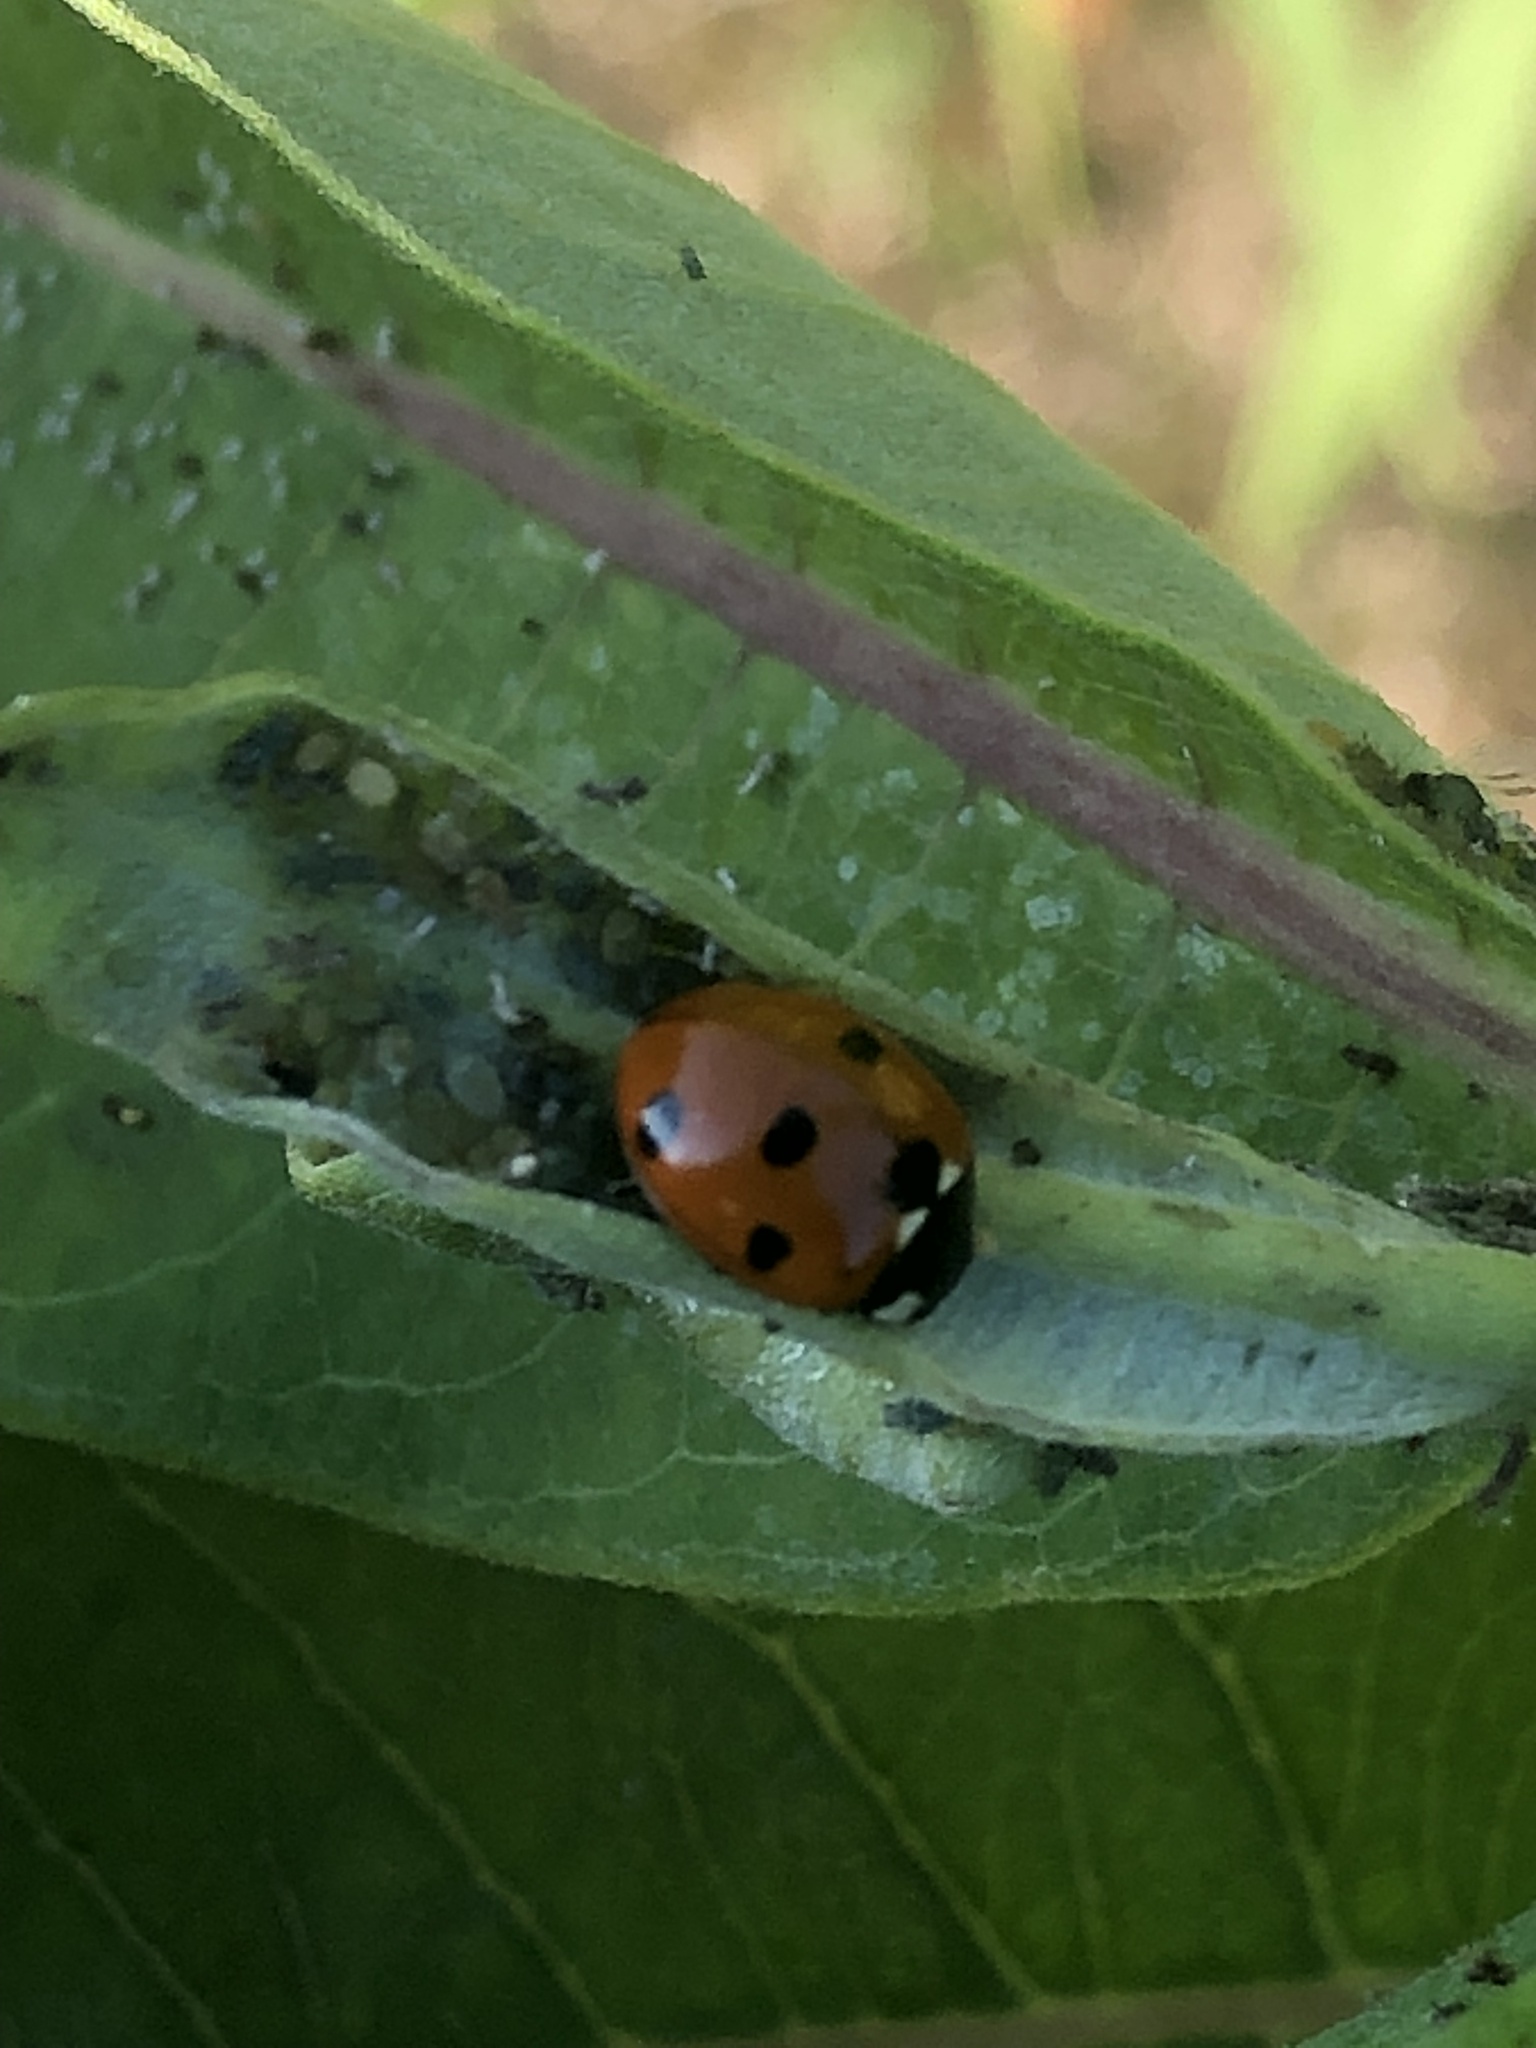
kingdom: Animalia
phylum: Arthropoda
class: Insecta
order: Coleoptera
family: Coccinellidae
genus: Coccinella
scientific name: Coccinella septempunctata
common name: Sevenspotted lady beetle
